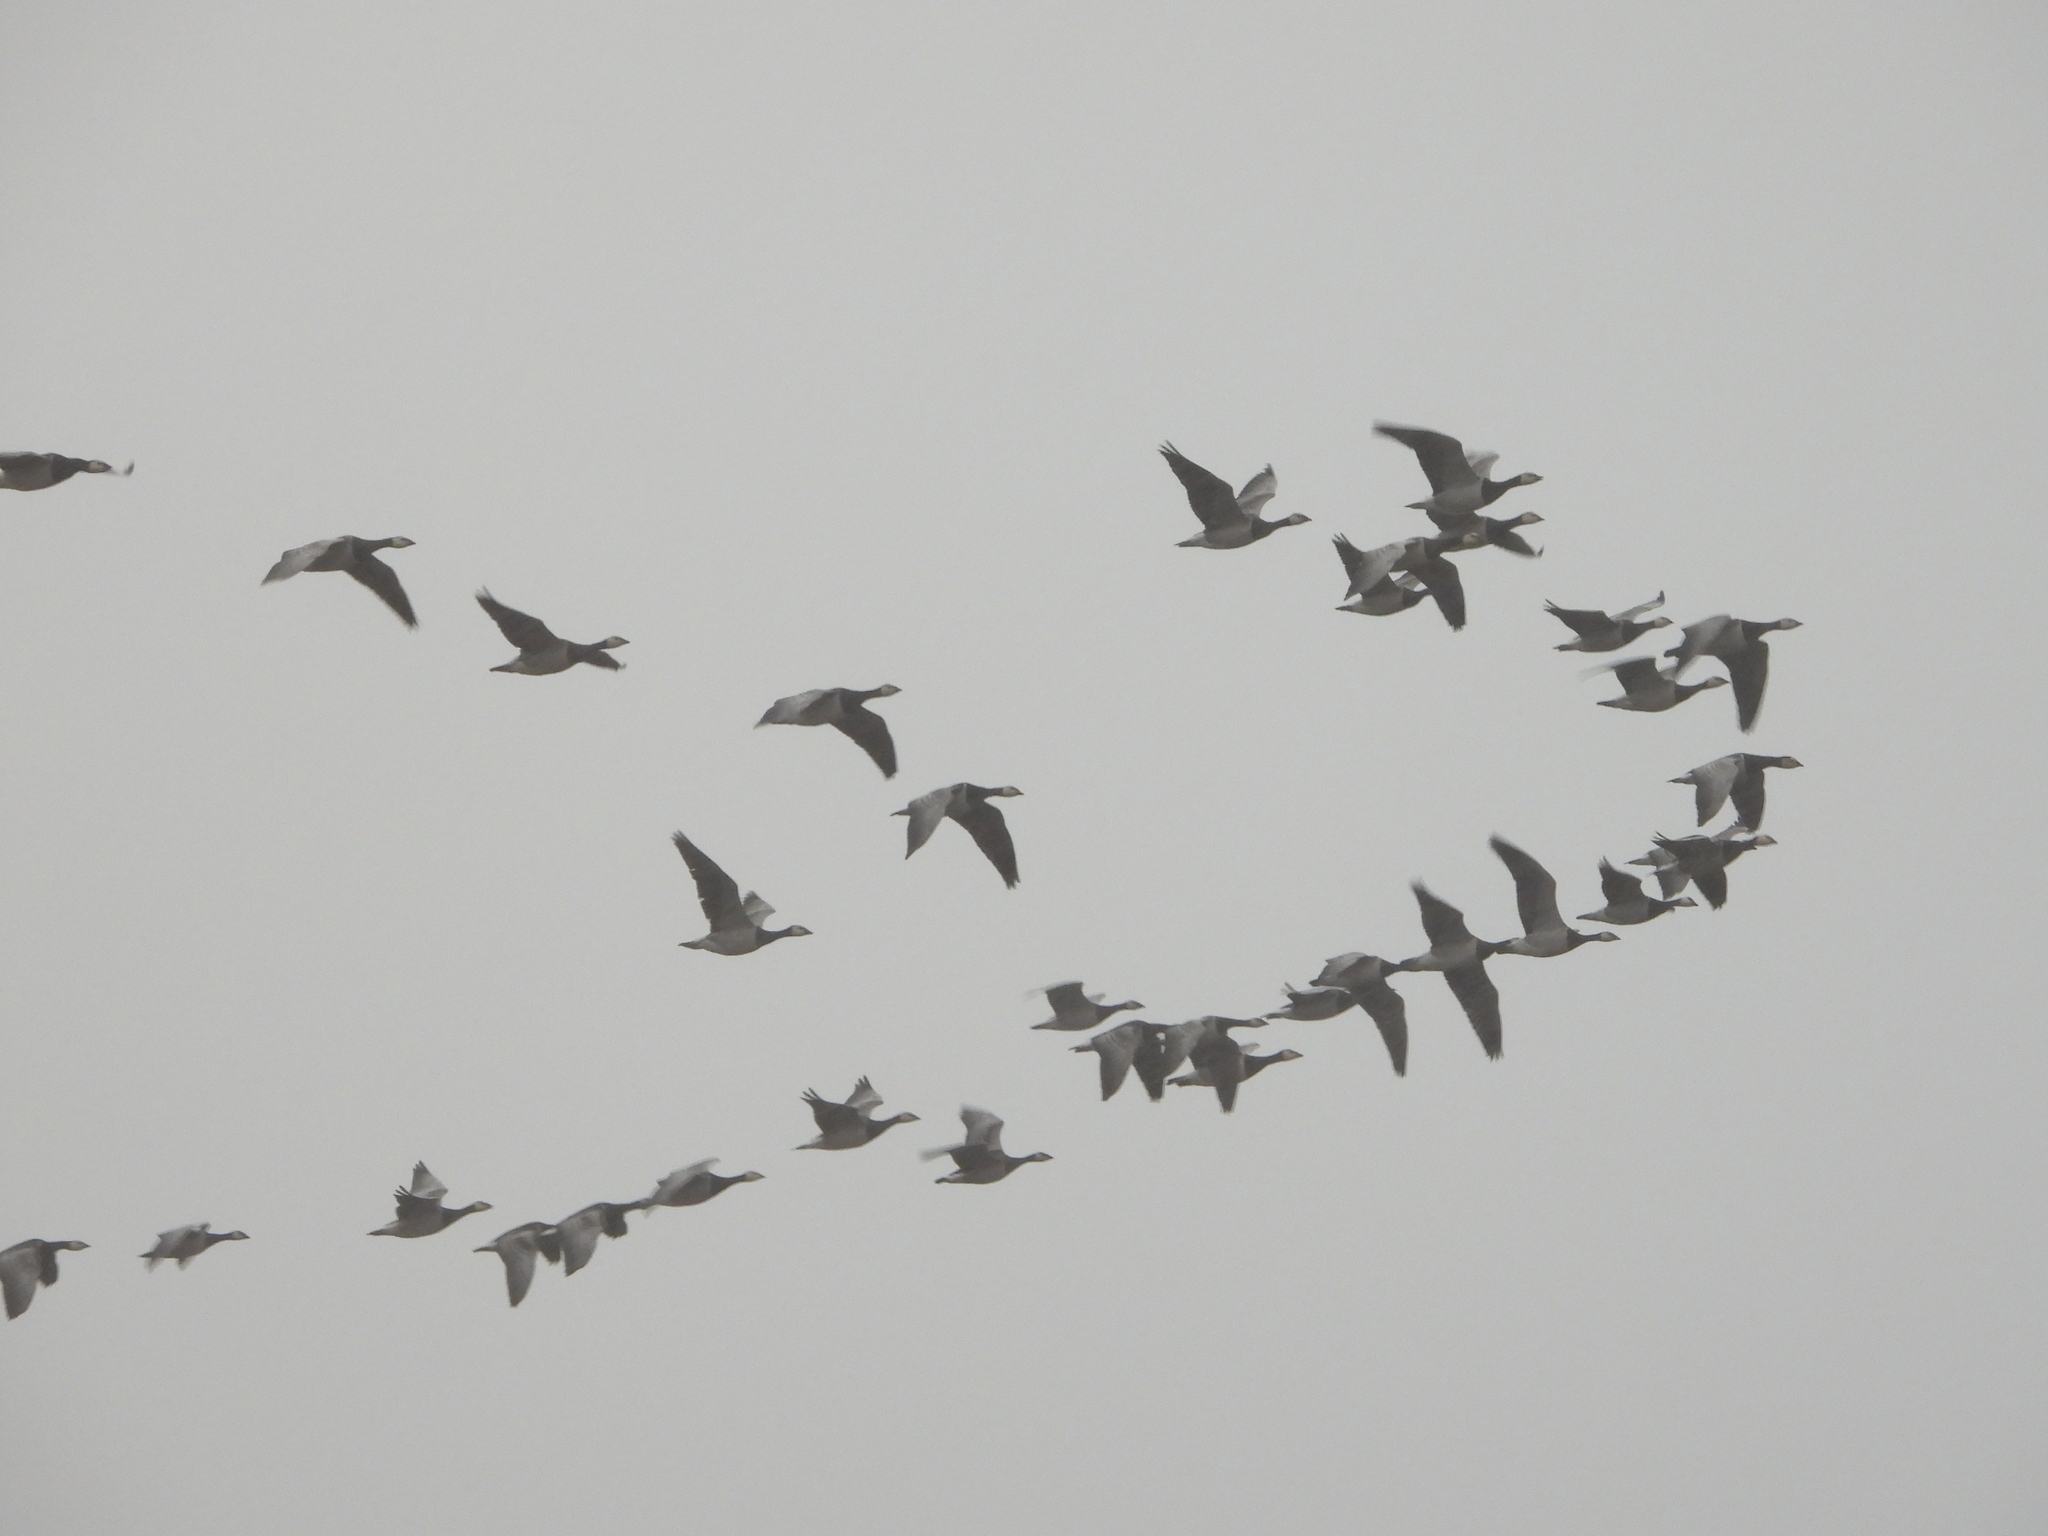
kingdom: Animalia
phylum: Chordata
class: Aves
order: Anseriformes
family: Anatidae
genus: Branta
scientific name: Branta leucopsis
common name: Barnacle goose
